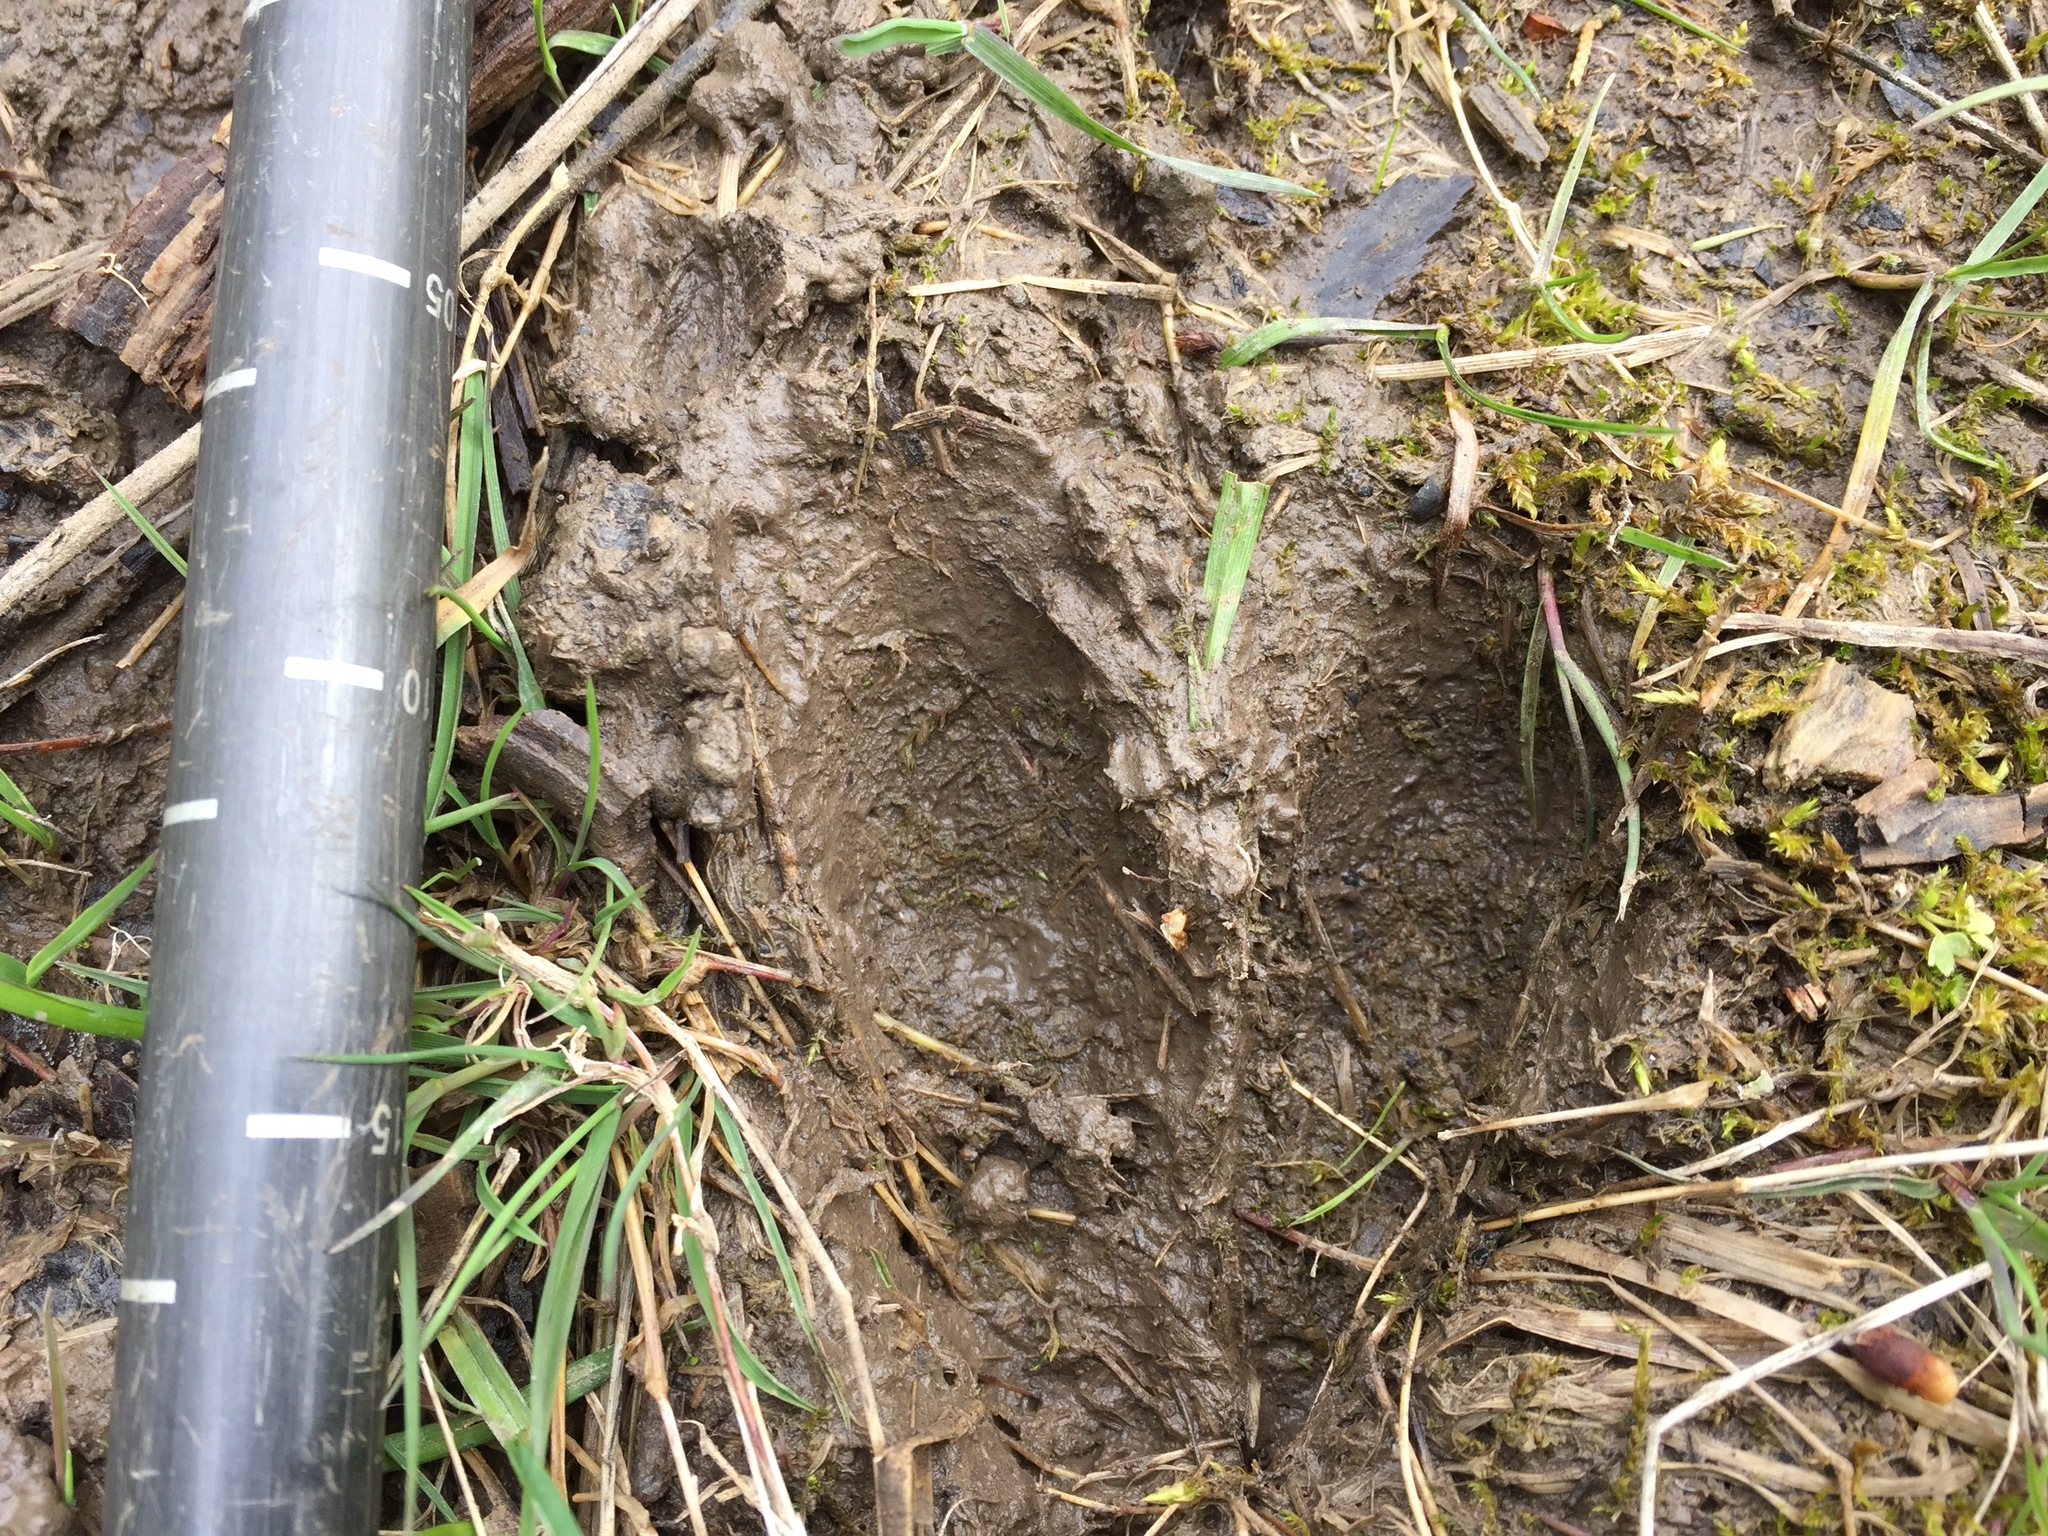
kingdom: Animalia
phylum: Chordata
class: Mammalia
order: Artiodactyla
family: Cervidae
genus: Odocoileus
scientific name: Odocoileus virginianus
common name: White-tailed deer
